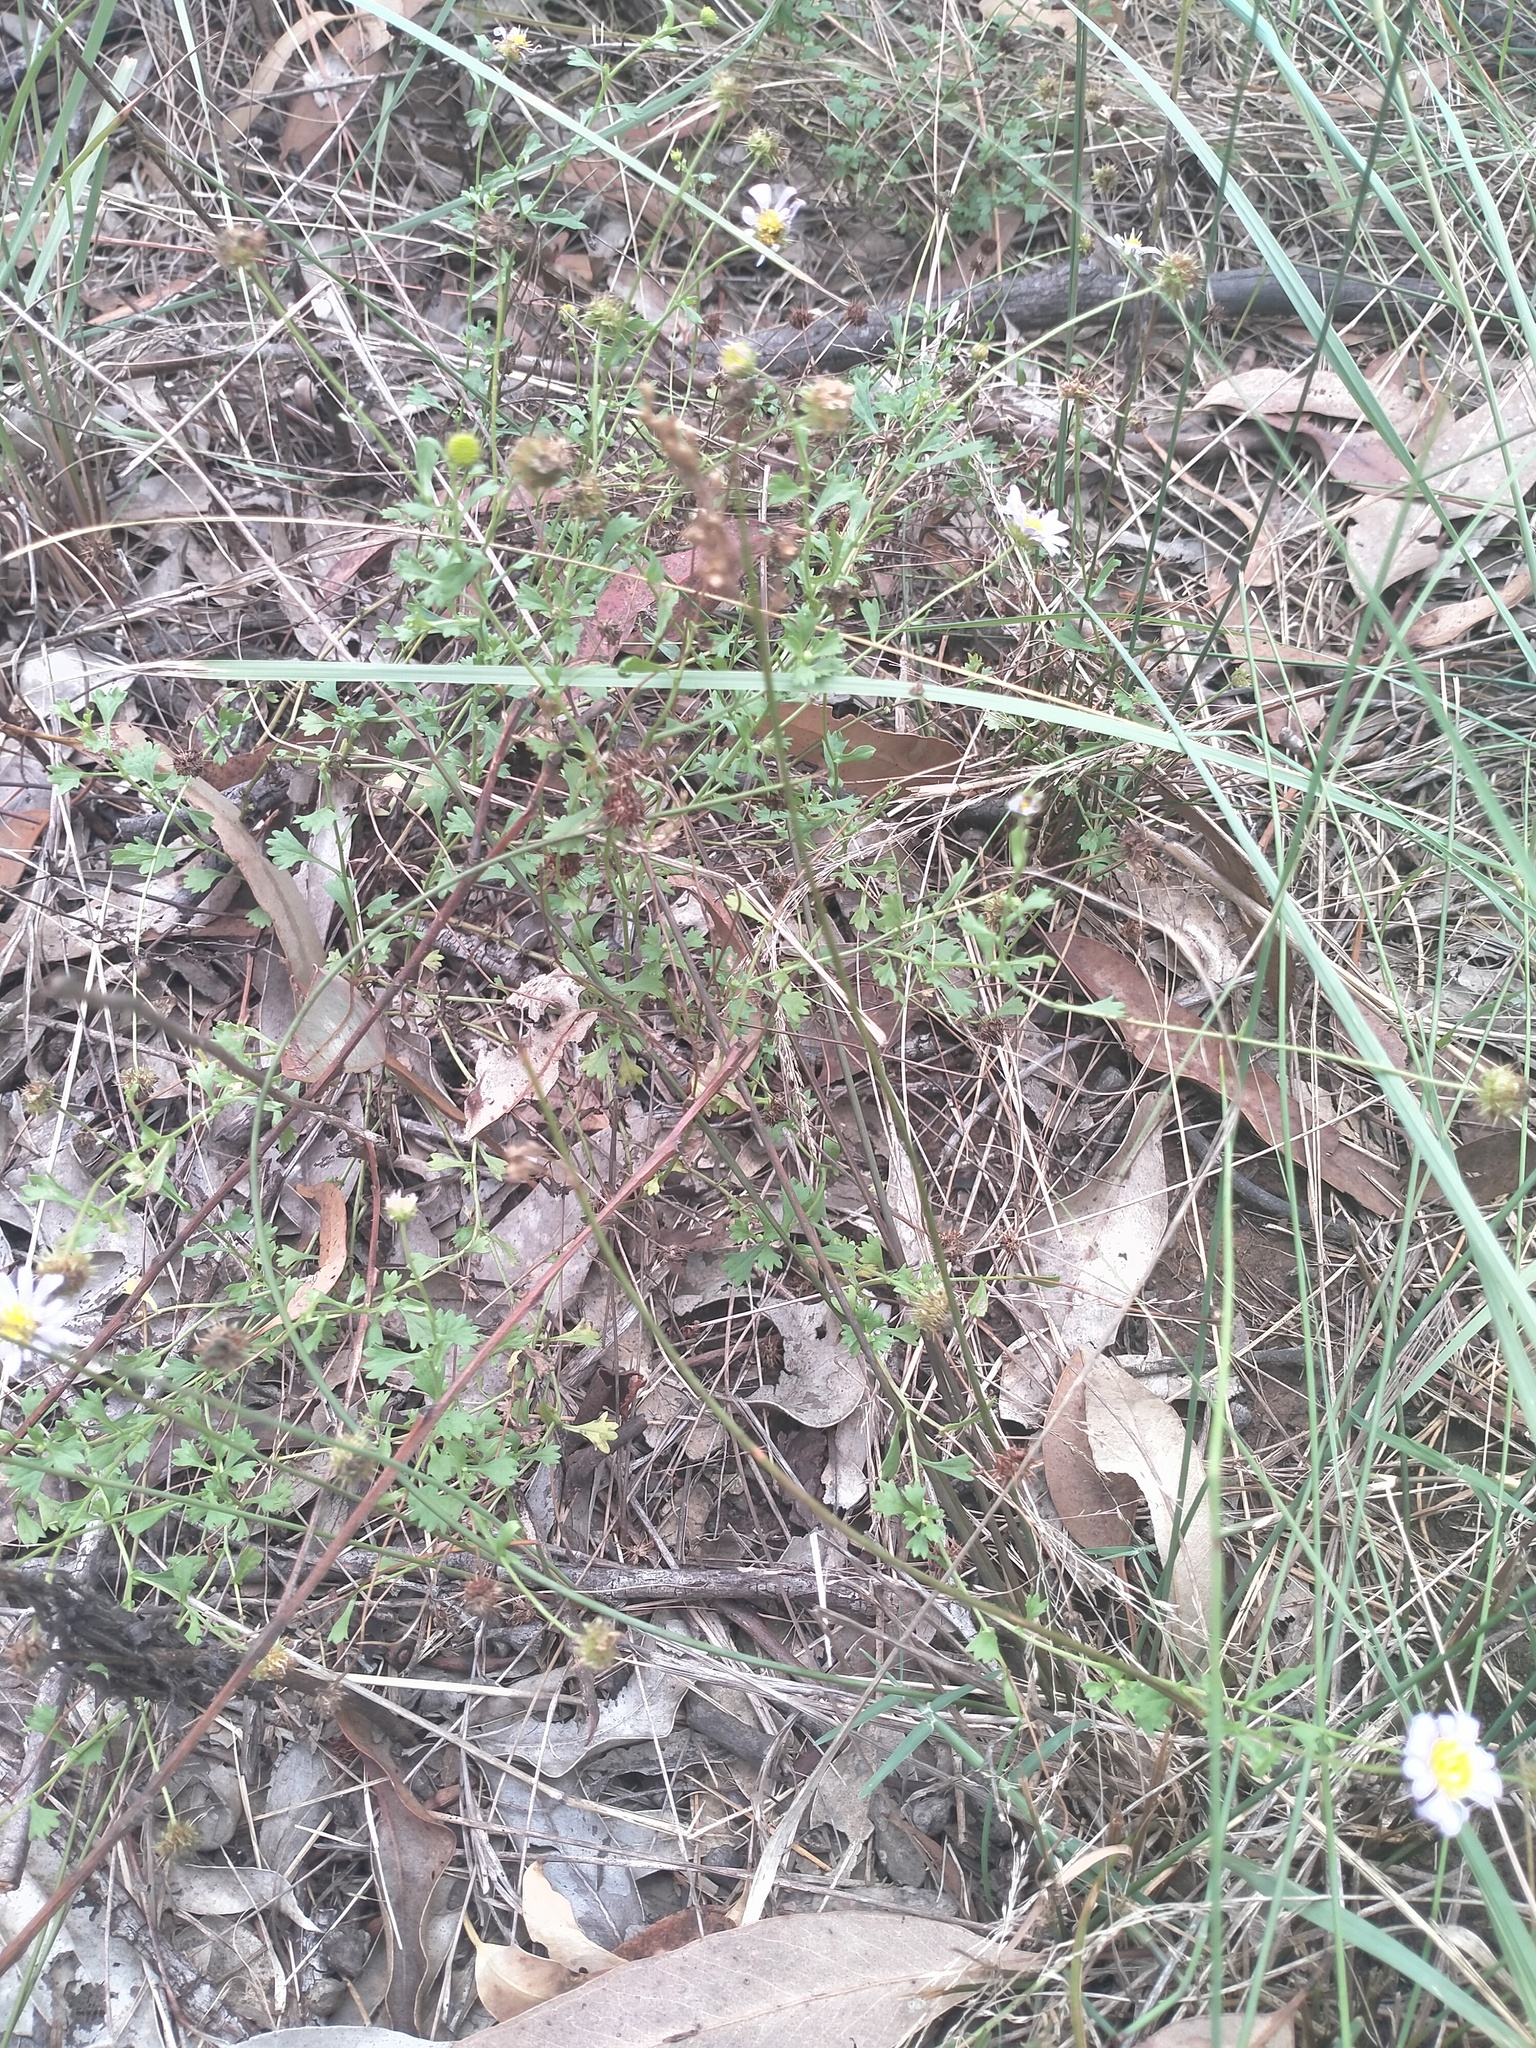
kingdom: Plantae
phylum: Tracheophyta
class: Magnoliopsida
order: Asterales
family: Asteraceae
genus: Calotis
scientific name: Calotis cuneifolia
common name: Bur-daisy
